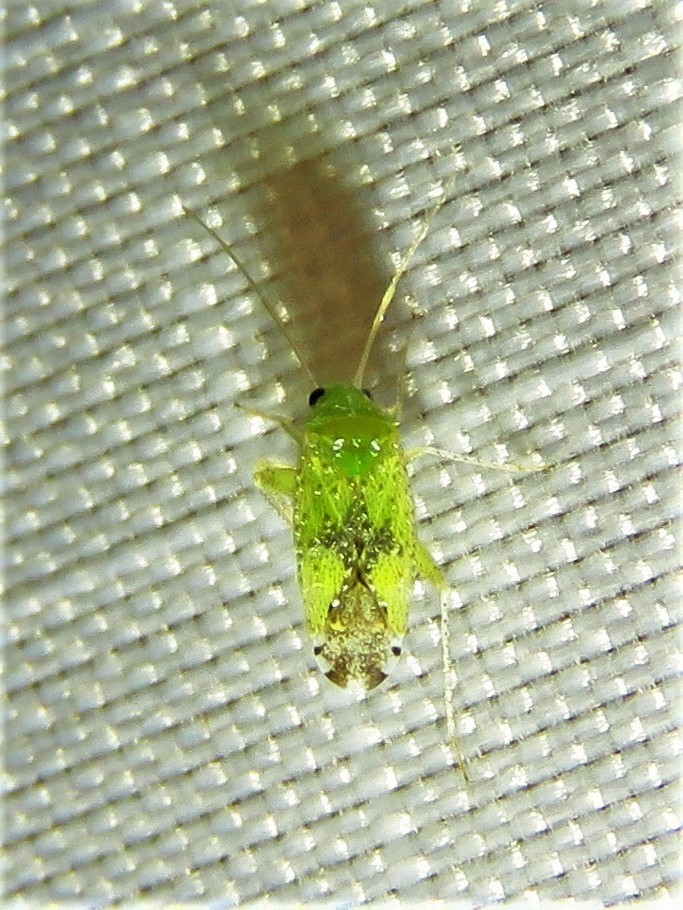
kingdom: Animalia
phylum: Arthropoda
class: Insecta
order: Hemiptera
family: Miridae
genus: Keltonia
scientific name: Keltonia tuckeri
